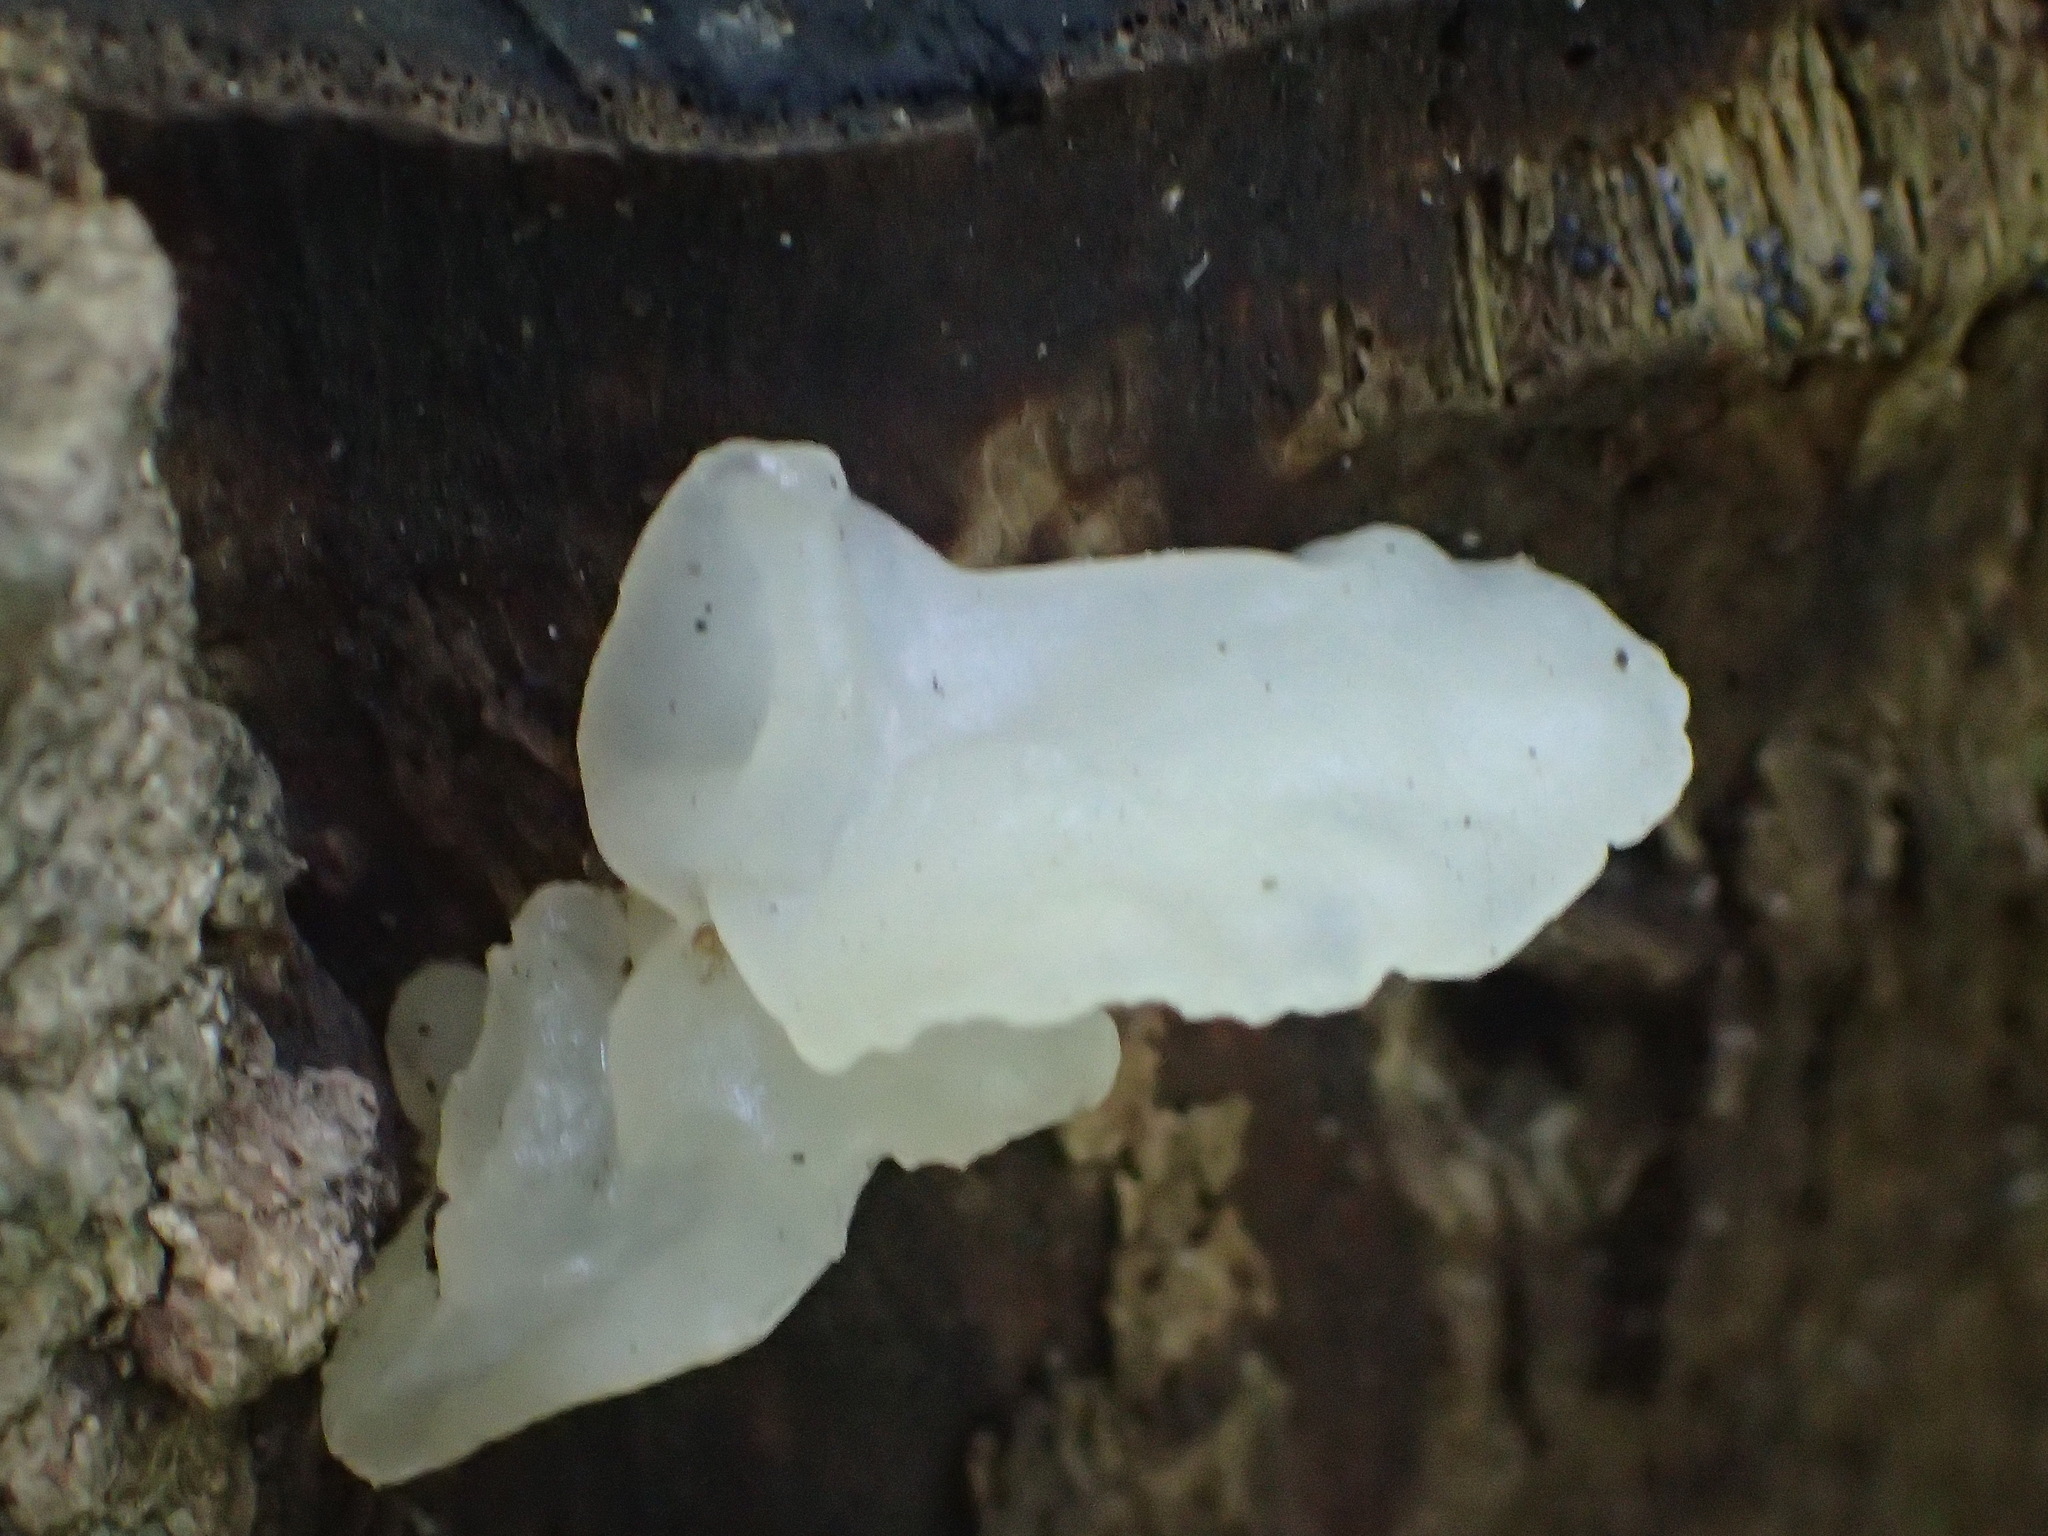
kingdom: Fungi
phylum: Basidiomycota
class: Tremellomycetes
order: Tremellales
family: Tremellaceae
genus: Tremella
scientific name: Tremella fuciformis
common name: Snow fungus
